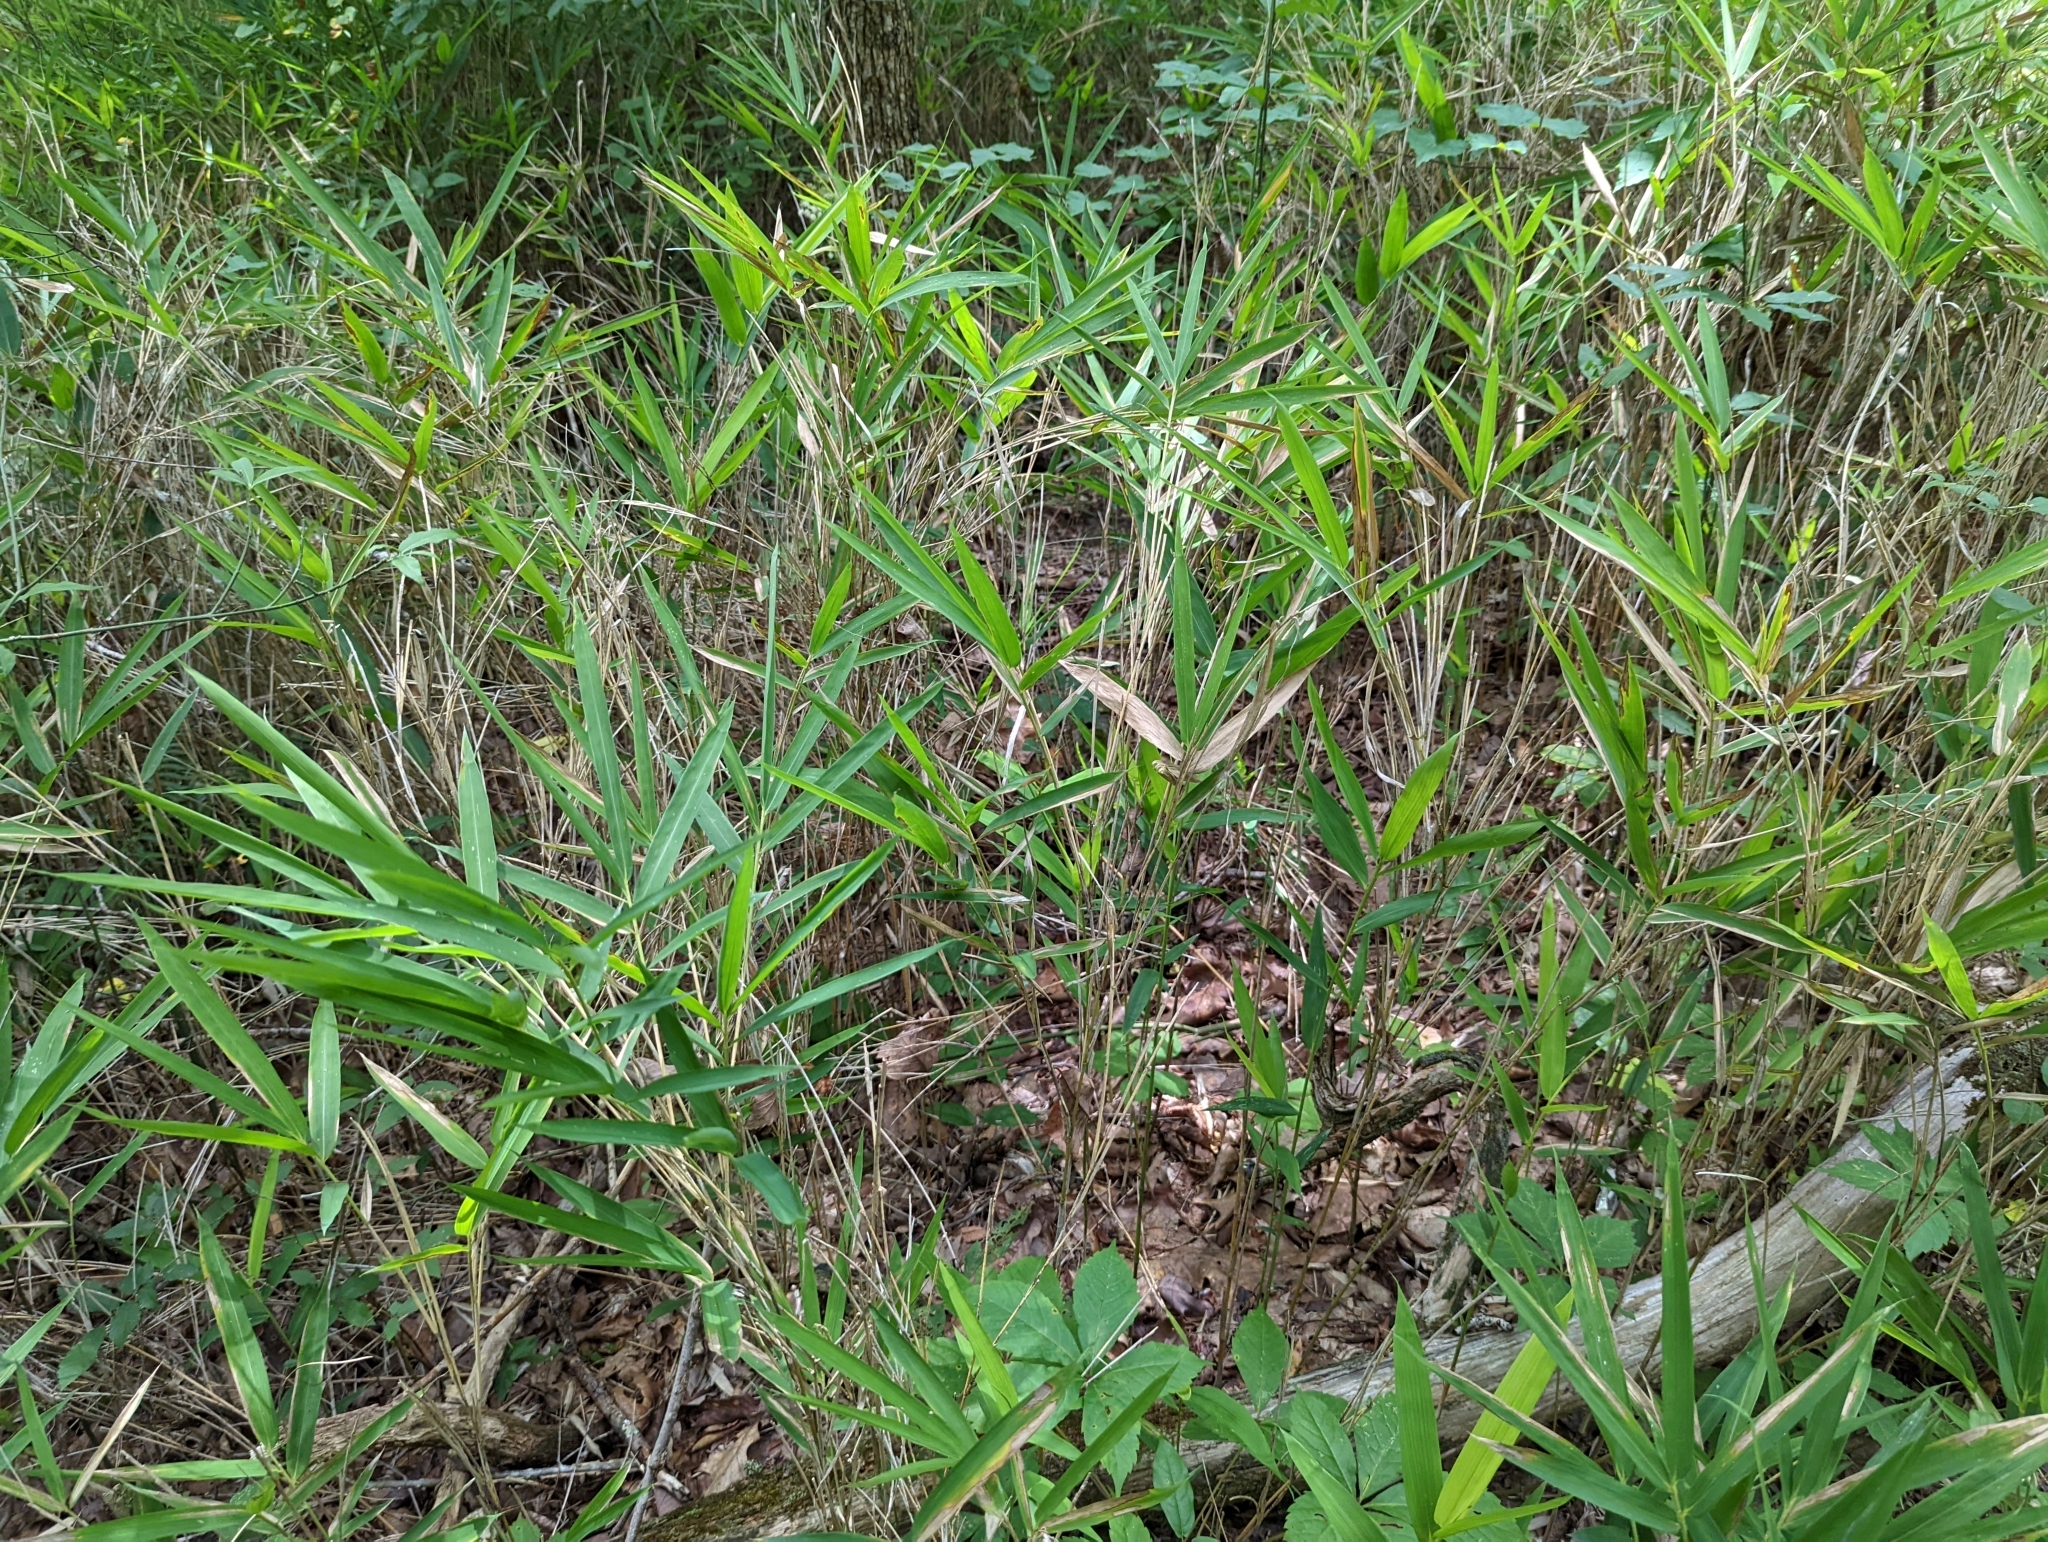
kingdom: Plantae
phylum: Tracheophyta
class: Liliopsida
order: Poales
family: Poaceae
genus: Arundinaria
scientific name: Arundinaria appalachiana
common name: Hill cane
